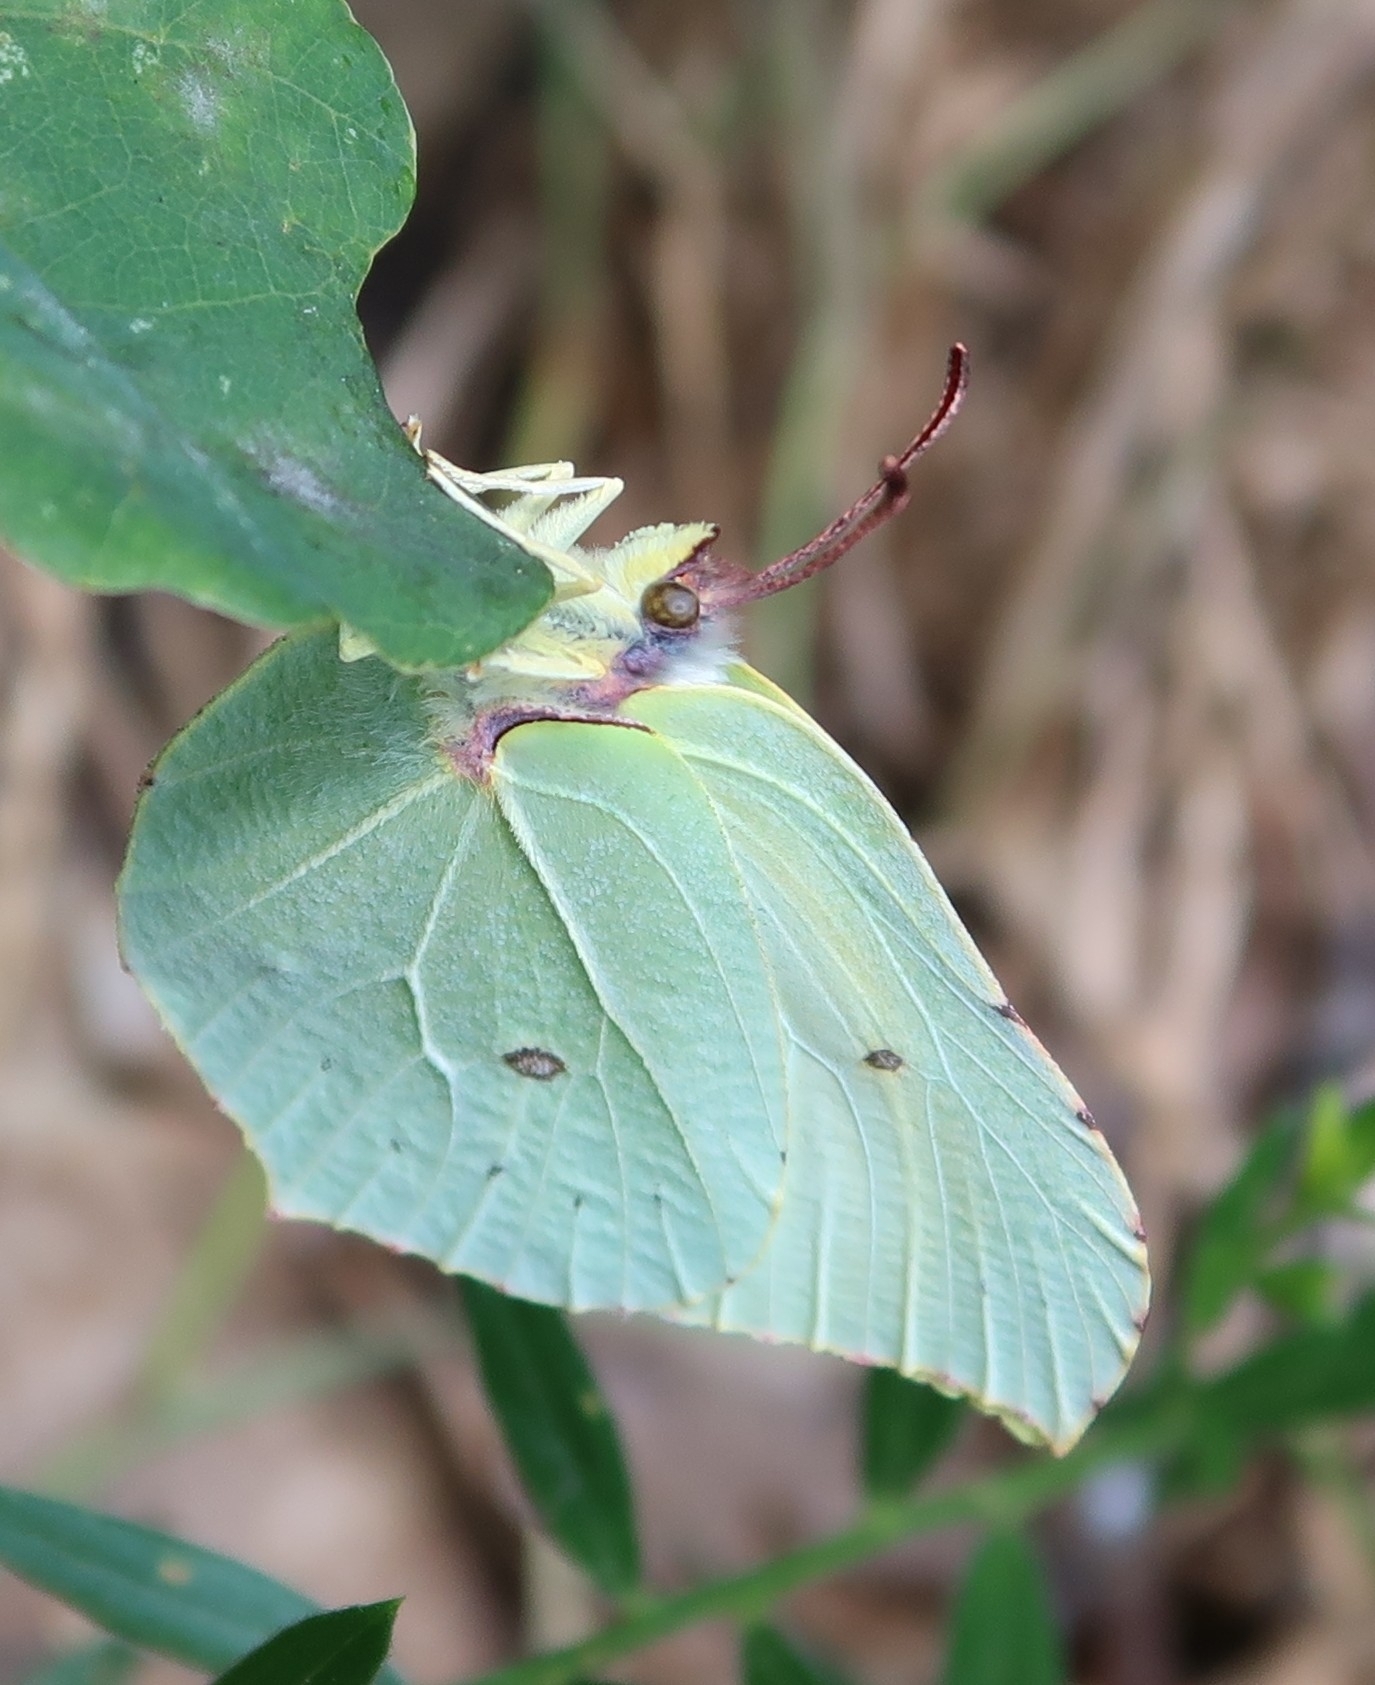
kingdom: Animalia
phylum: Arthropoda
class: Insecta
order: Lepidoptera
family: Pieridae
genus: Gonepteryx
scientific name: Gonepteryx rhamni
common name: Brimstone
